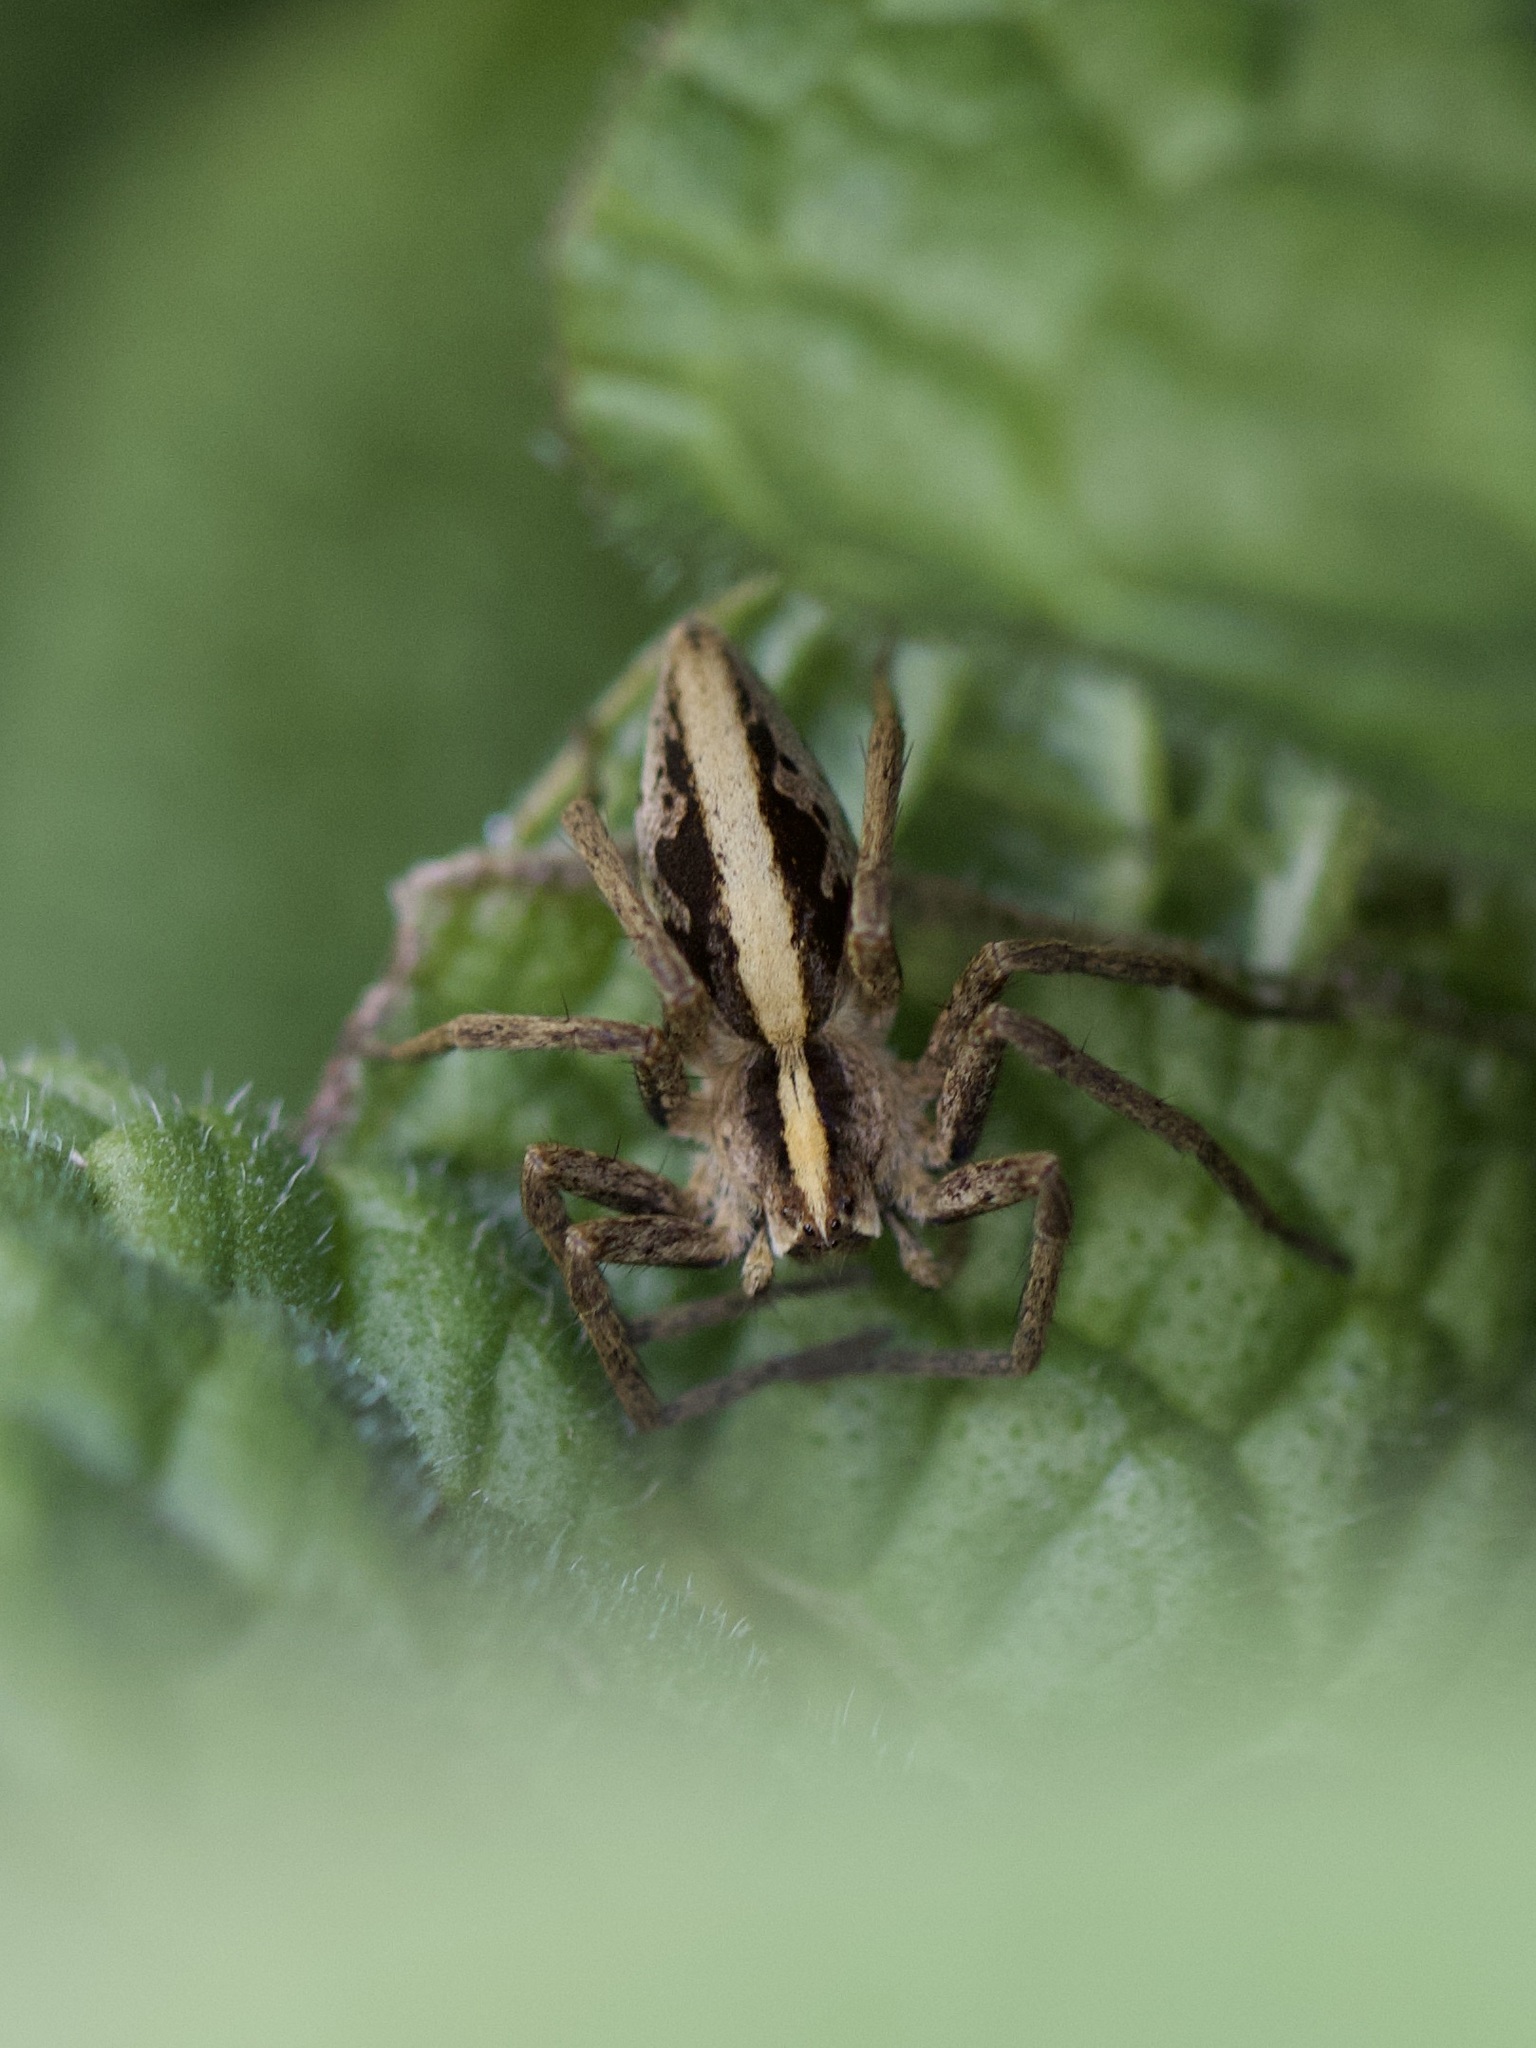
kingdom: Animalia
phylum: Arthropoda
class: Arachnida
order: Araneae
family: Pisauridae
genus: Pisaura
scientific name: Pisaura mirabilis
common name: Tent spider
